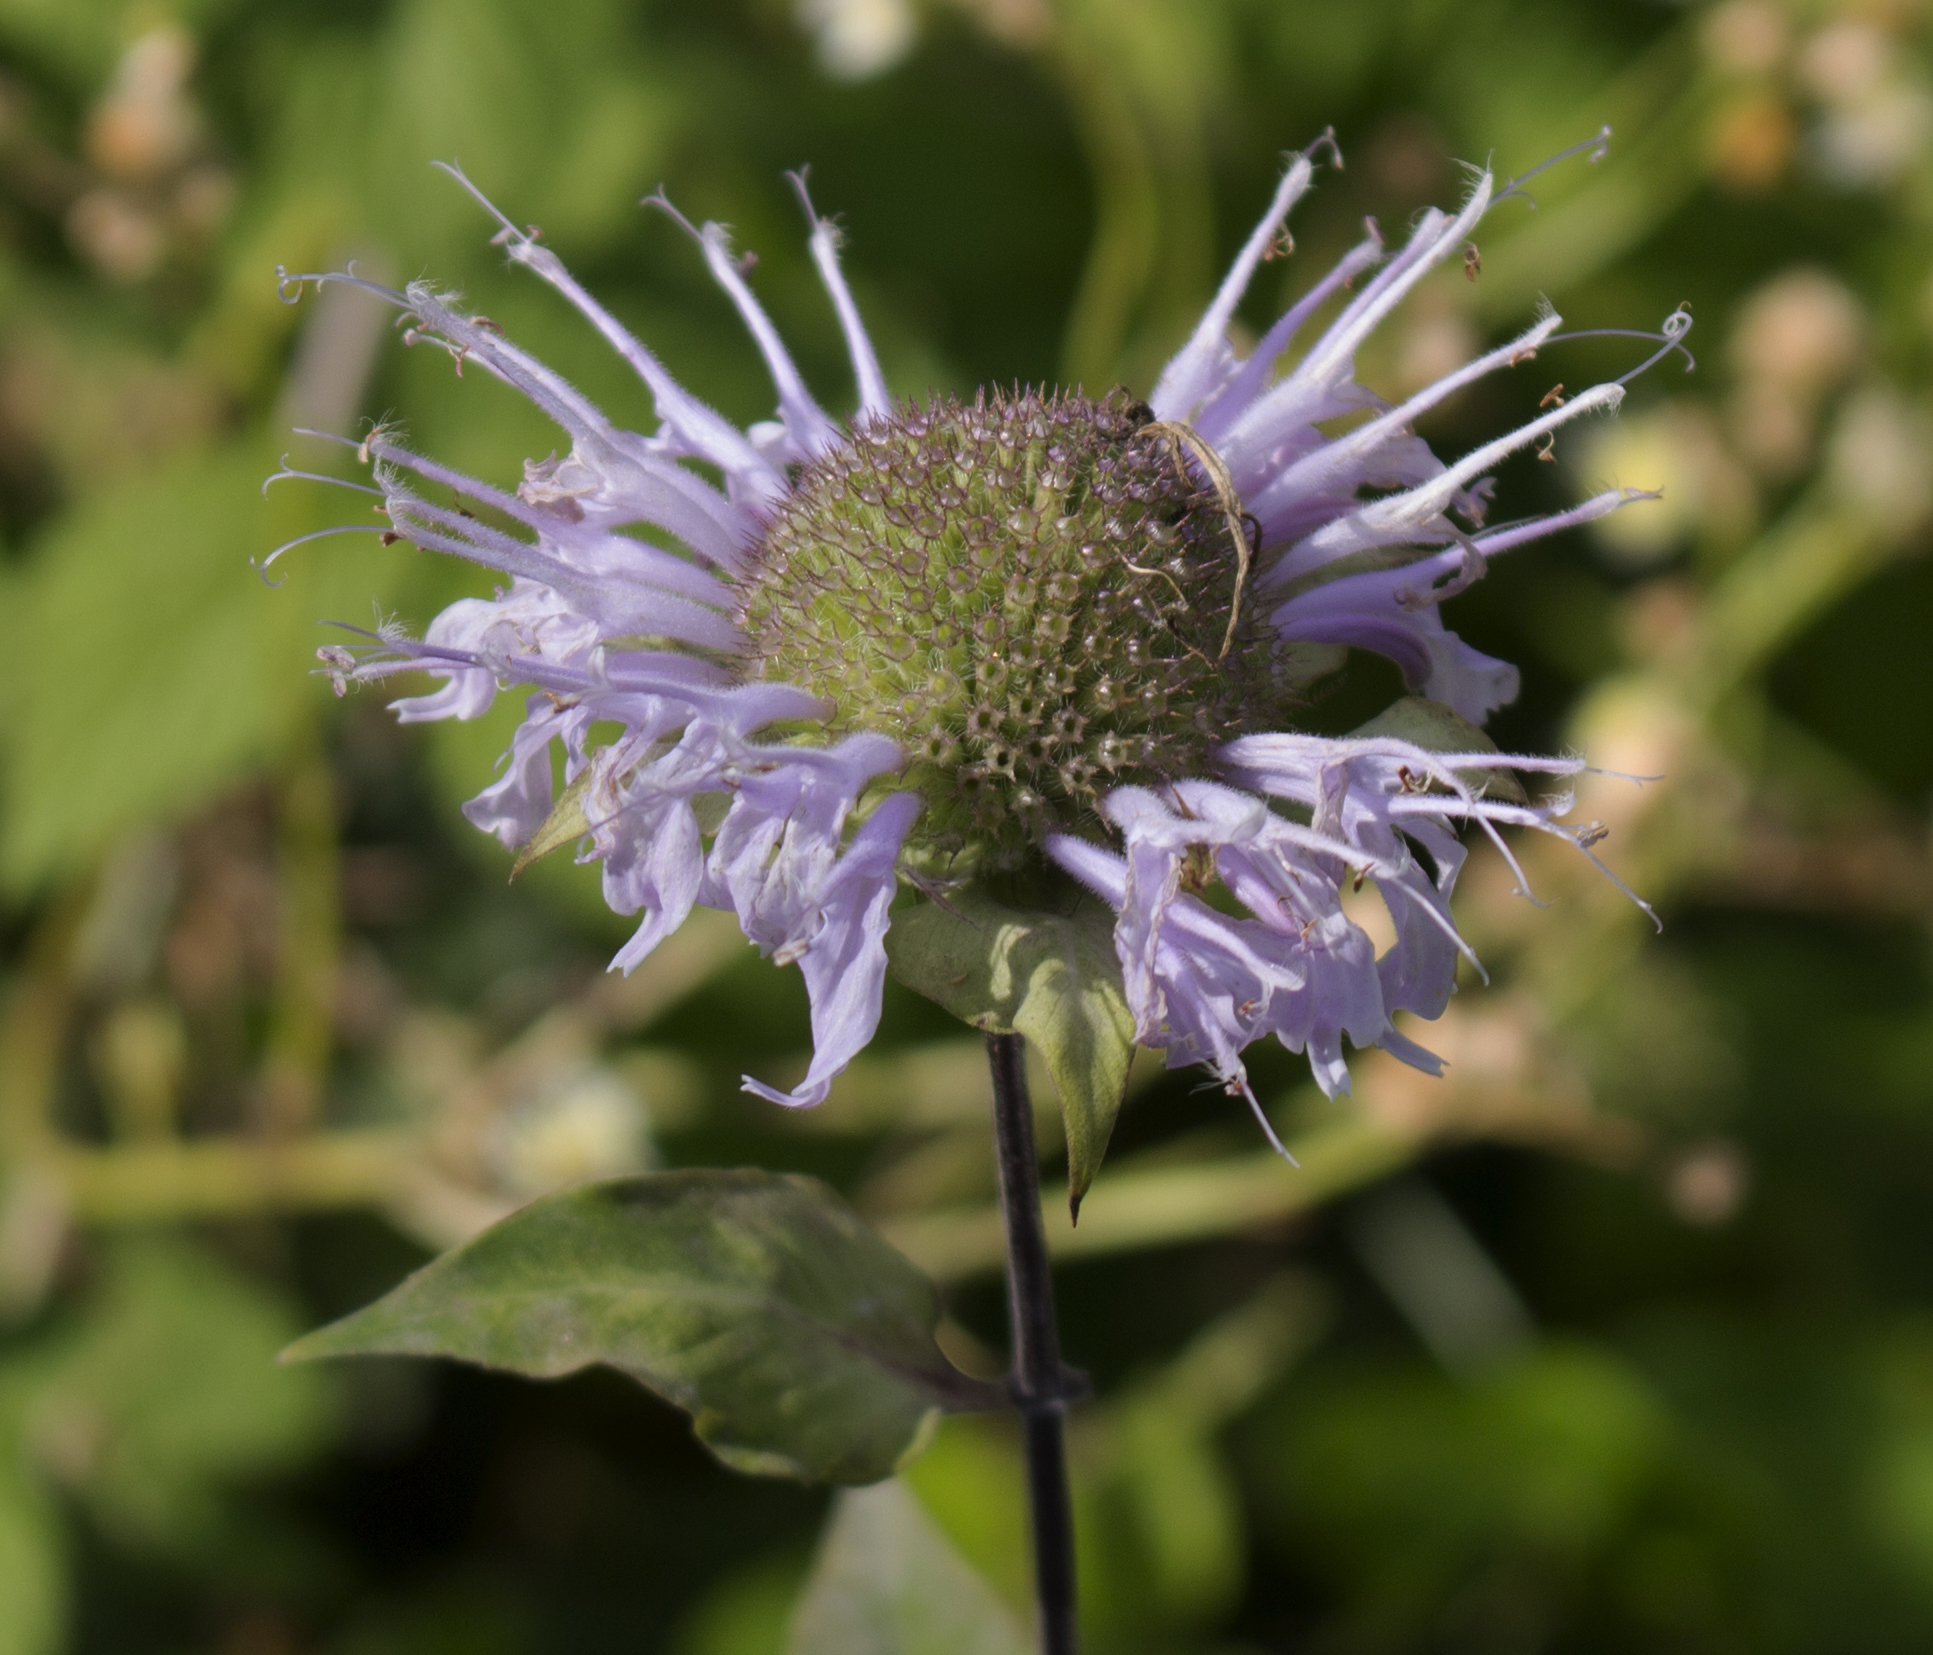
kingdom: Plantae
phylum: Tracheophyta
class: Magnoliopsida
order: Lamiales
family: Lamiaceae
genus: Monarda
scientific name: Monarda fistulosa
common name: Purple beebalm
